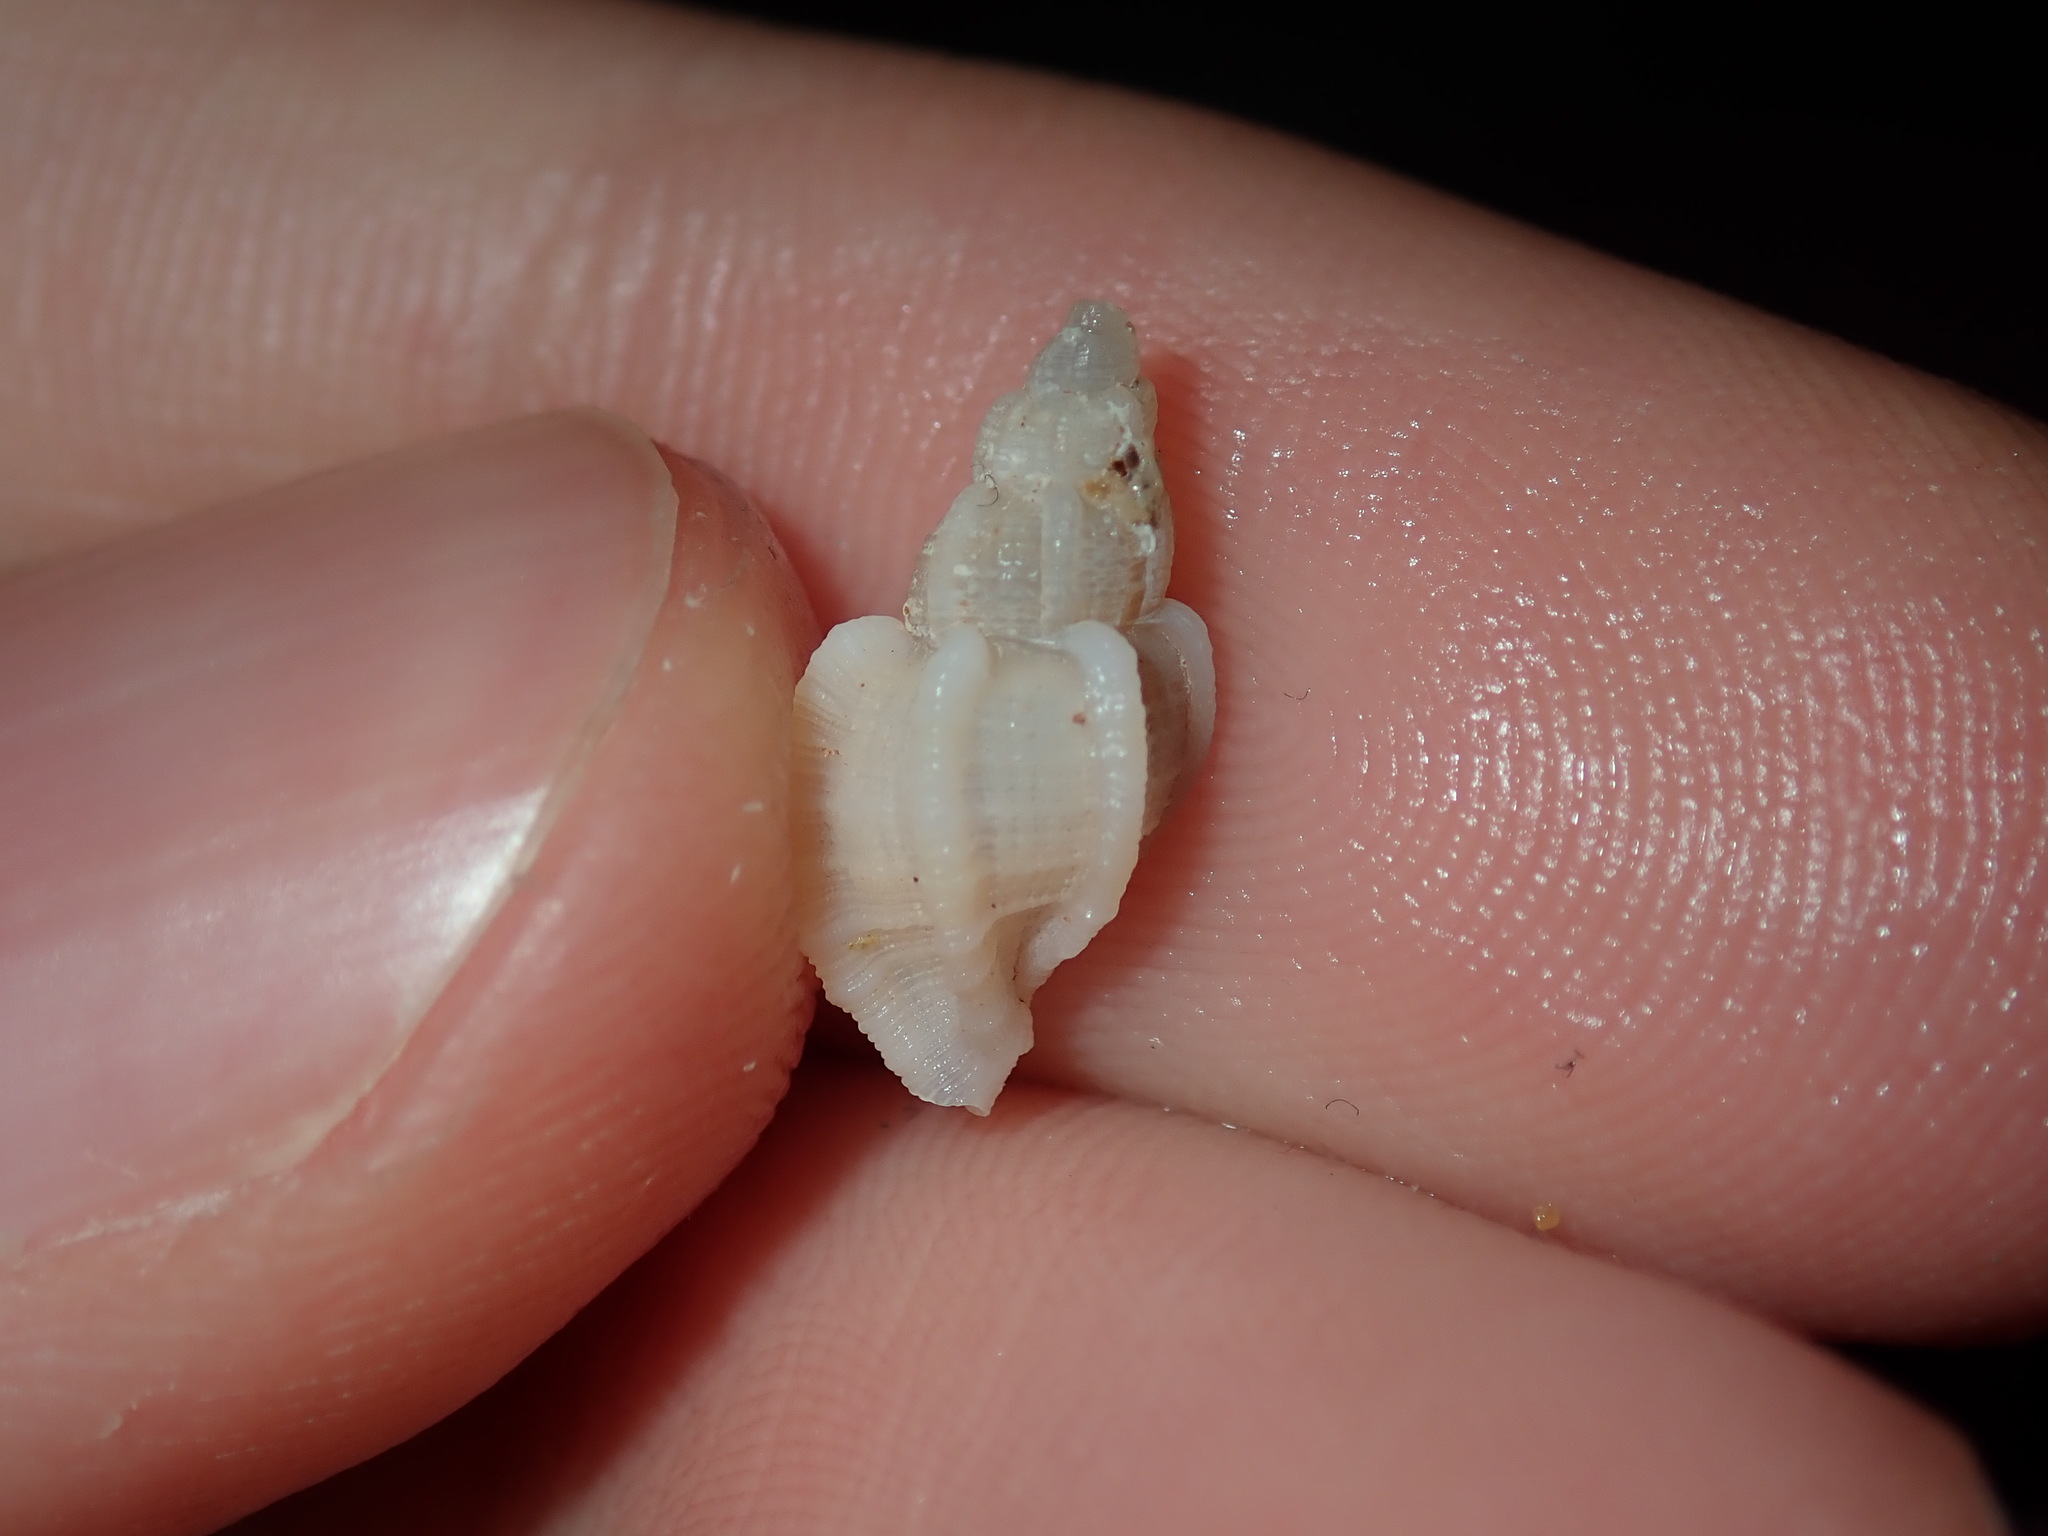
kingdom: Animalia
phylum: Mollusca
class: Gastropoda
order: Neogastropoda
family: Muricidae
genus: Phyllocoma
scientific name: Phyllocoma speciosa
